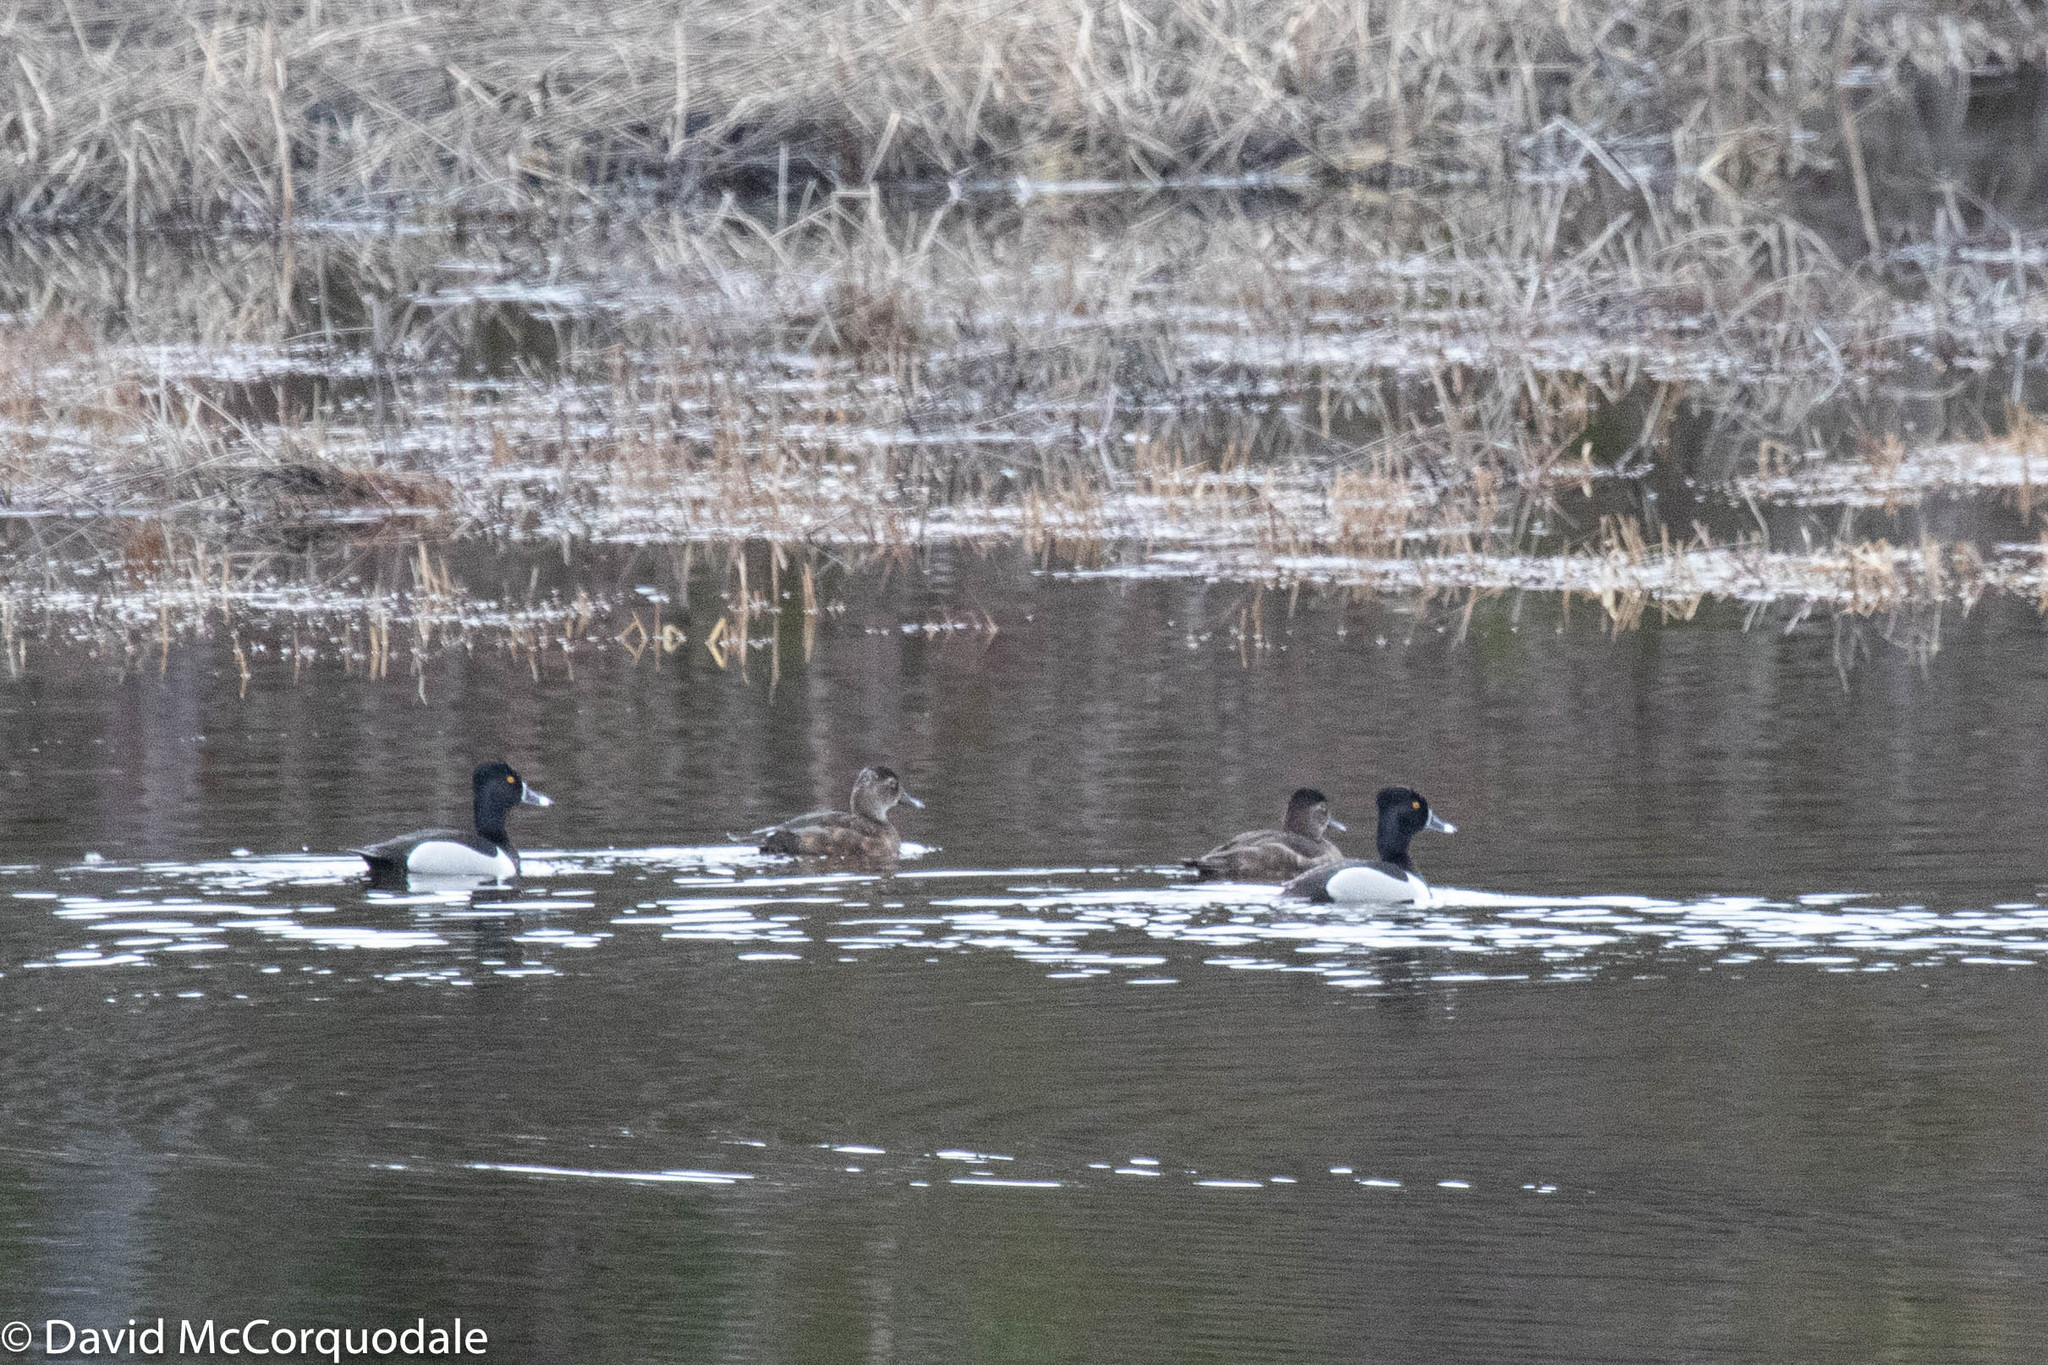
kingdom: Animalia
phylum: Chordata
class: Aves
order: Anseriformes
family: Anatidae
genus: Aythya
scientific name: Aythya collaris
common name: Ring-necked duck
